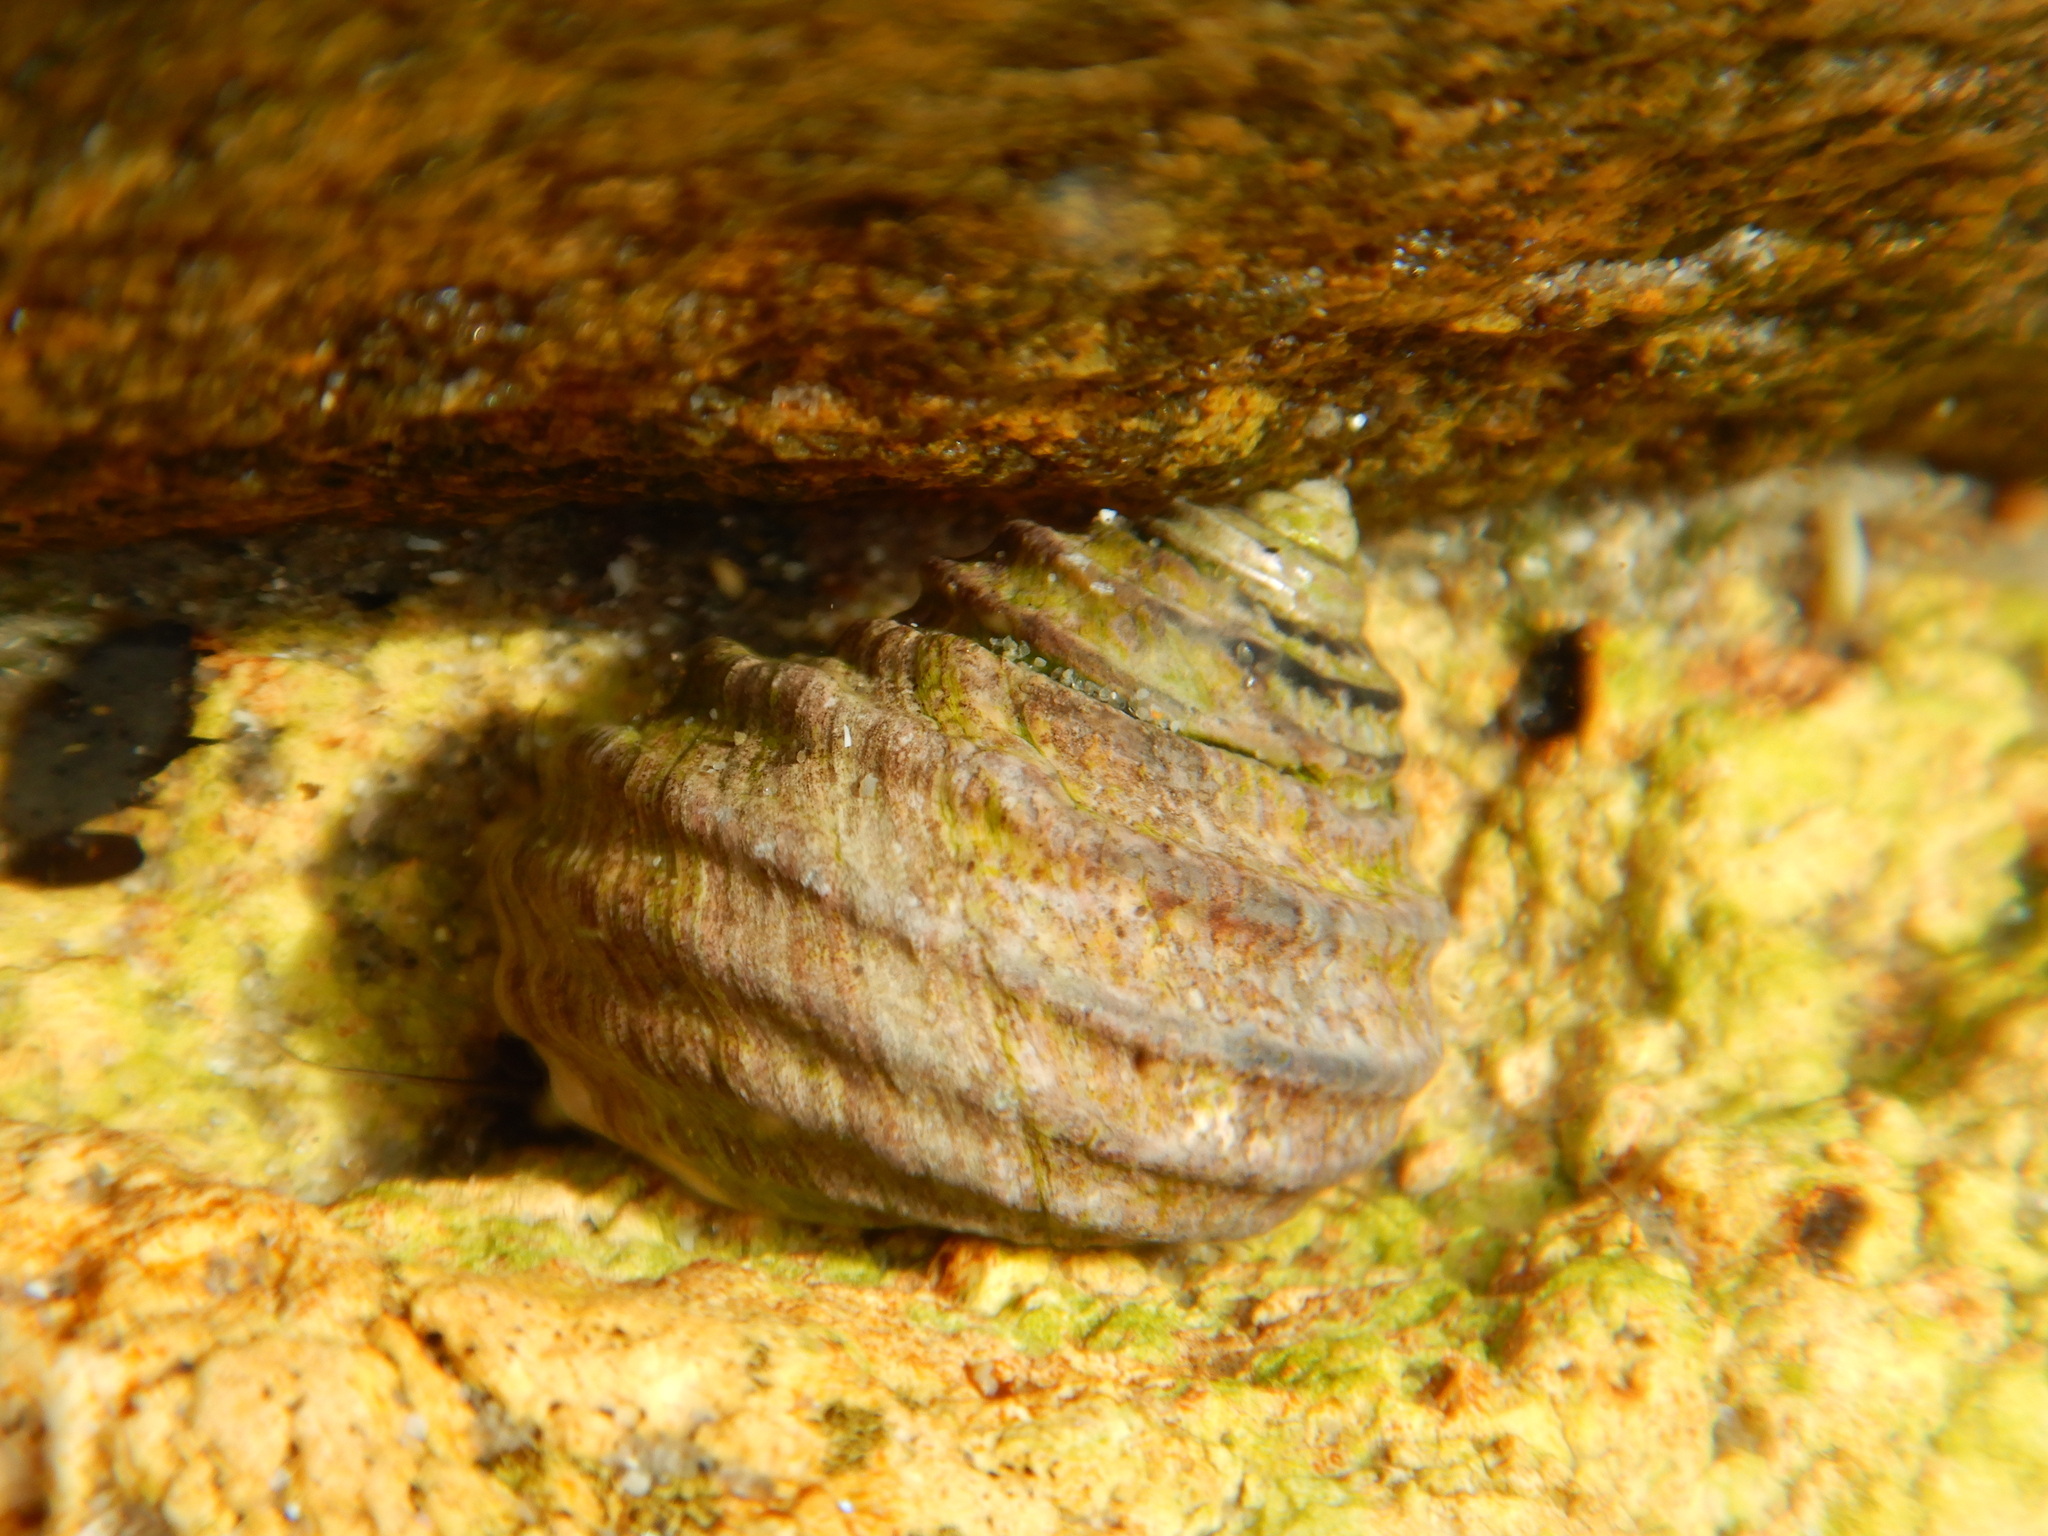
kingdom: Animalia
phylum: Mollusca
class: Gastropoda
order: Trochida
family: Trochidae
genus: Austrocochlea
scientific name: Austrocochlea constricta
